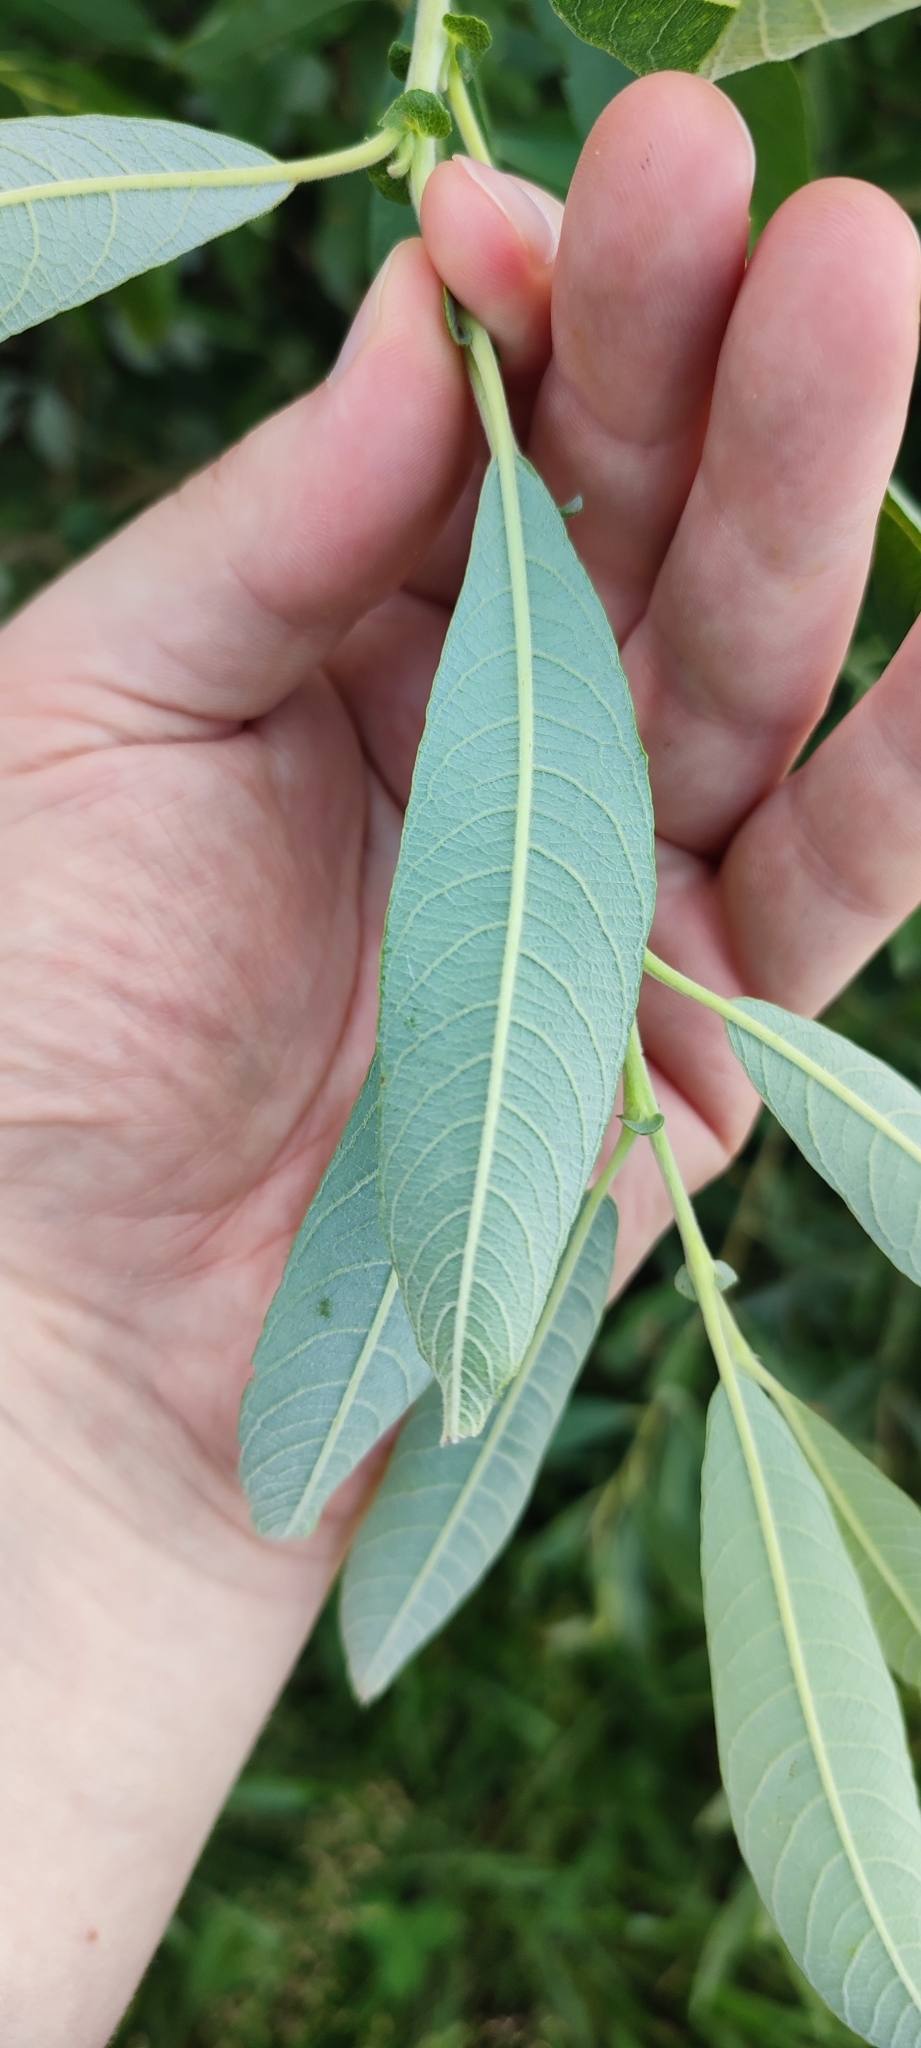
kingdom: Plantae
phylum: Tracheophyta
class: Magnoliopsida
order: Malpighiales
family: Salicaceae
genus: Salix
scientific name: Salix gmelinii
